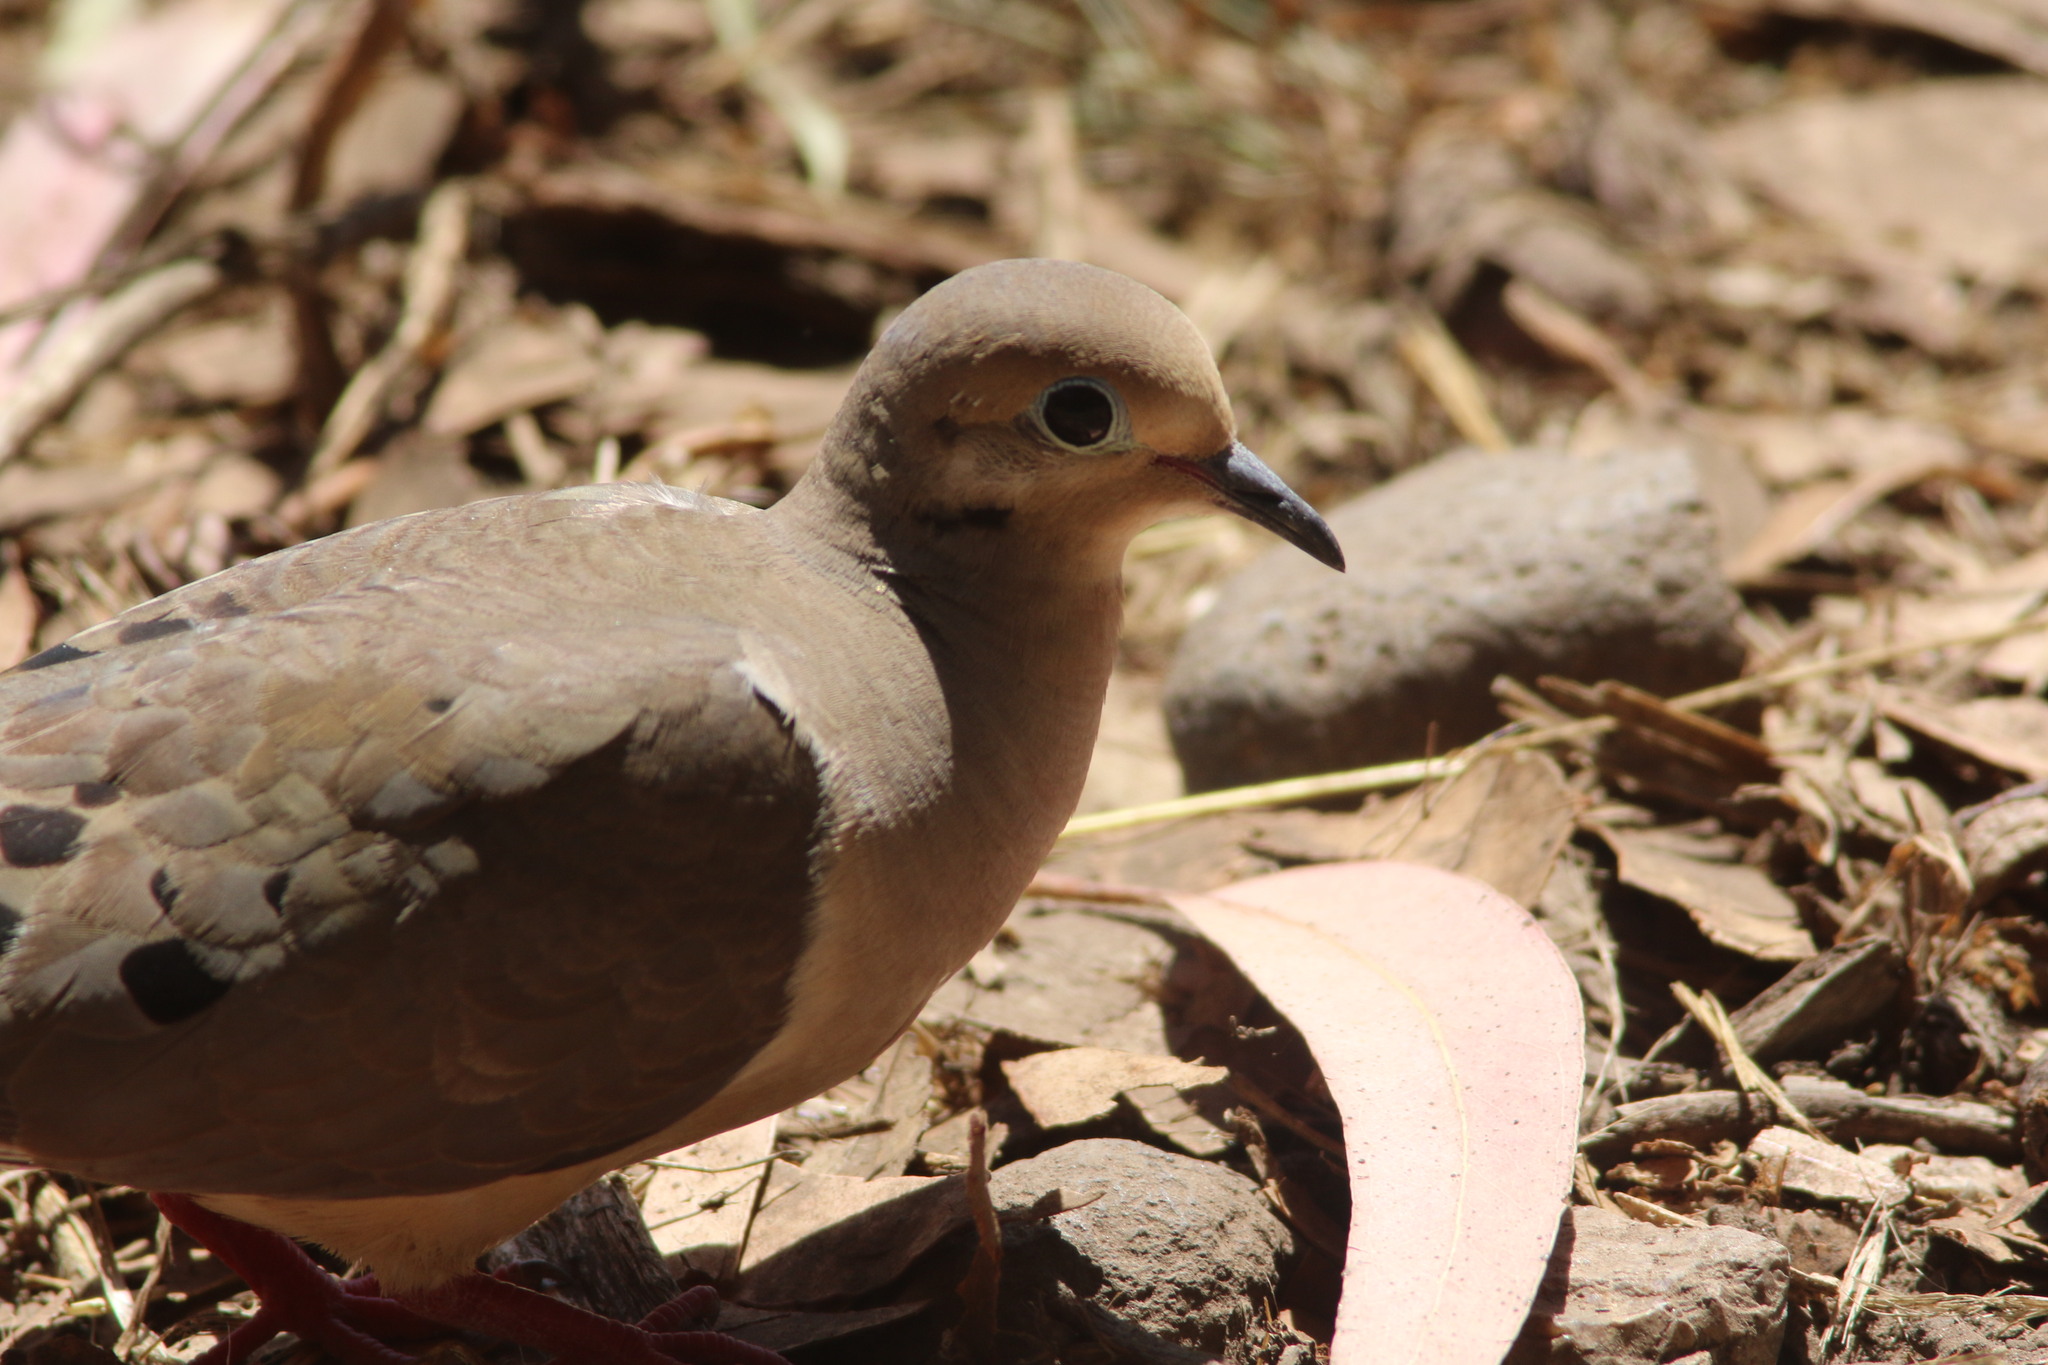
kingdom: Animalia
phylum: Chordata
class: Aves
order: Columbiformes
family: Columbidae
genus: Zenaida
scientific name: Zenaida macroura
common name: Mourning dove
